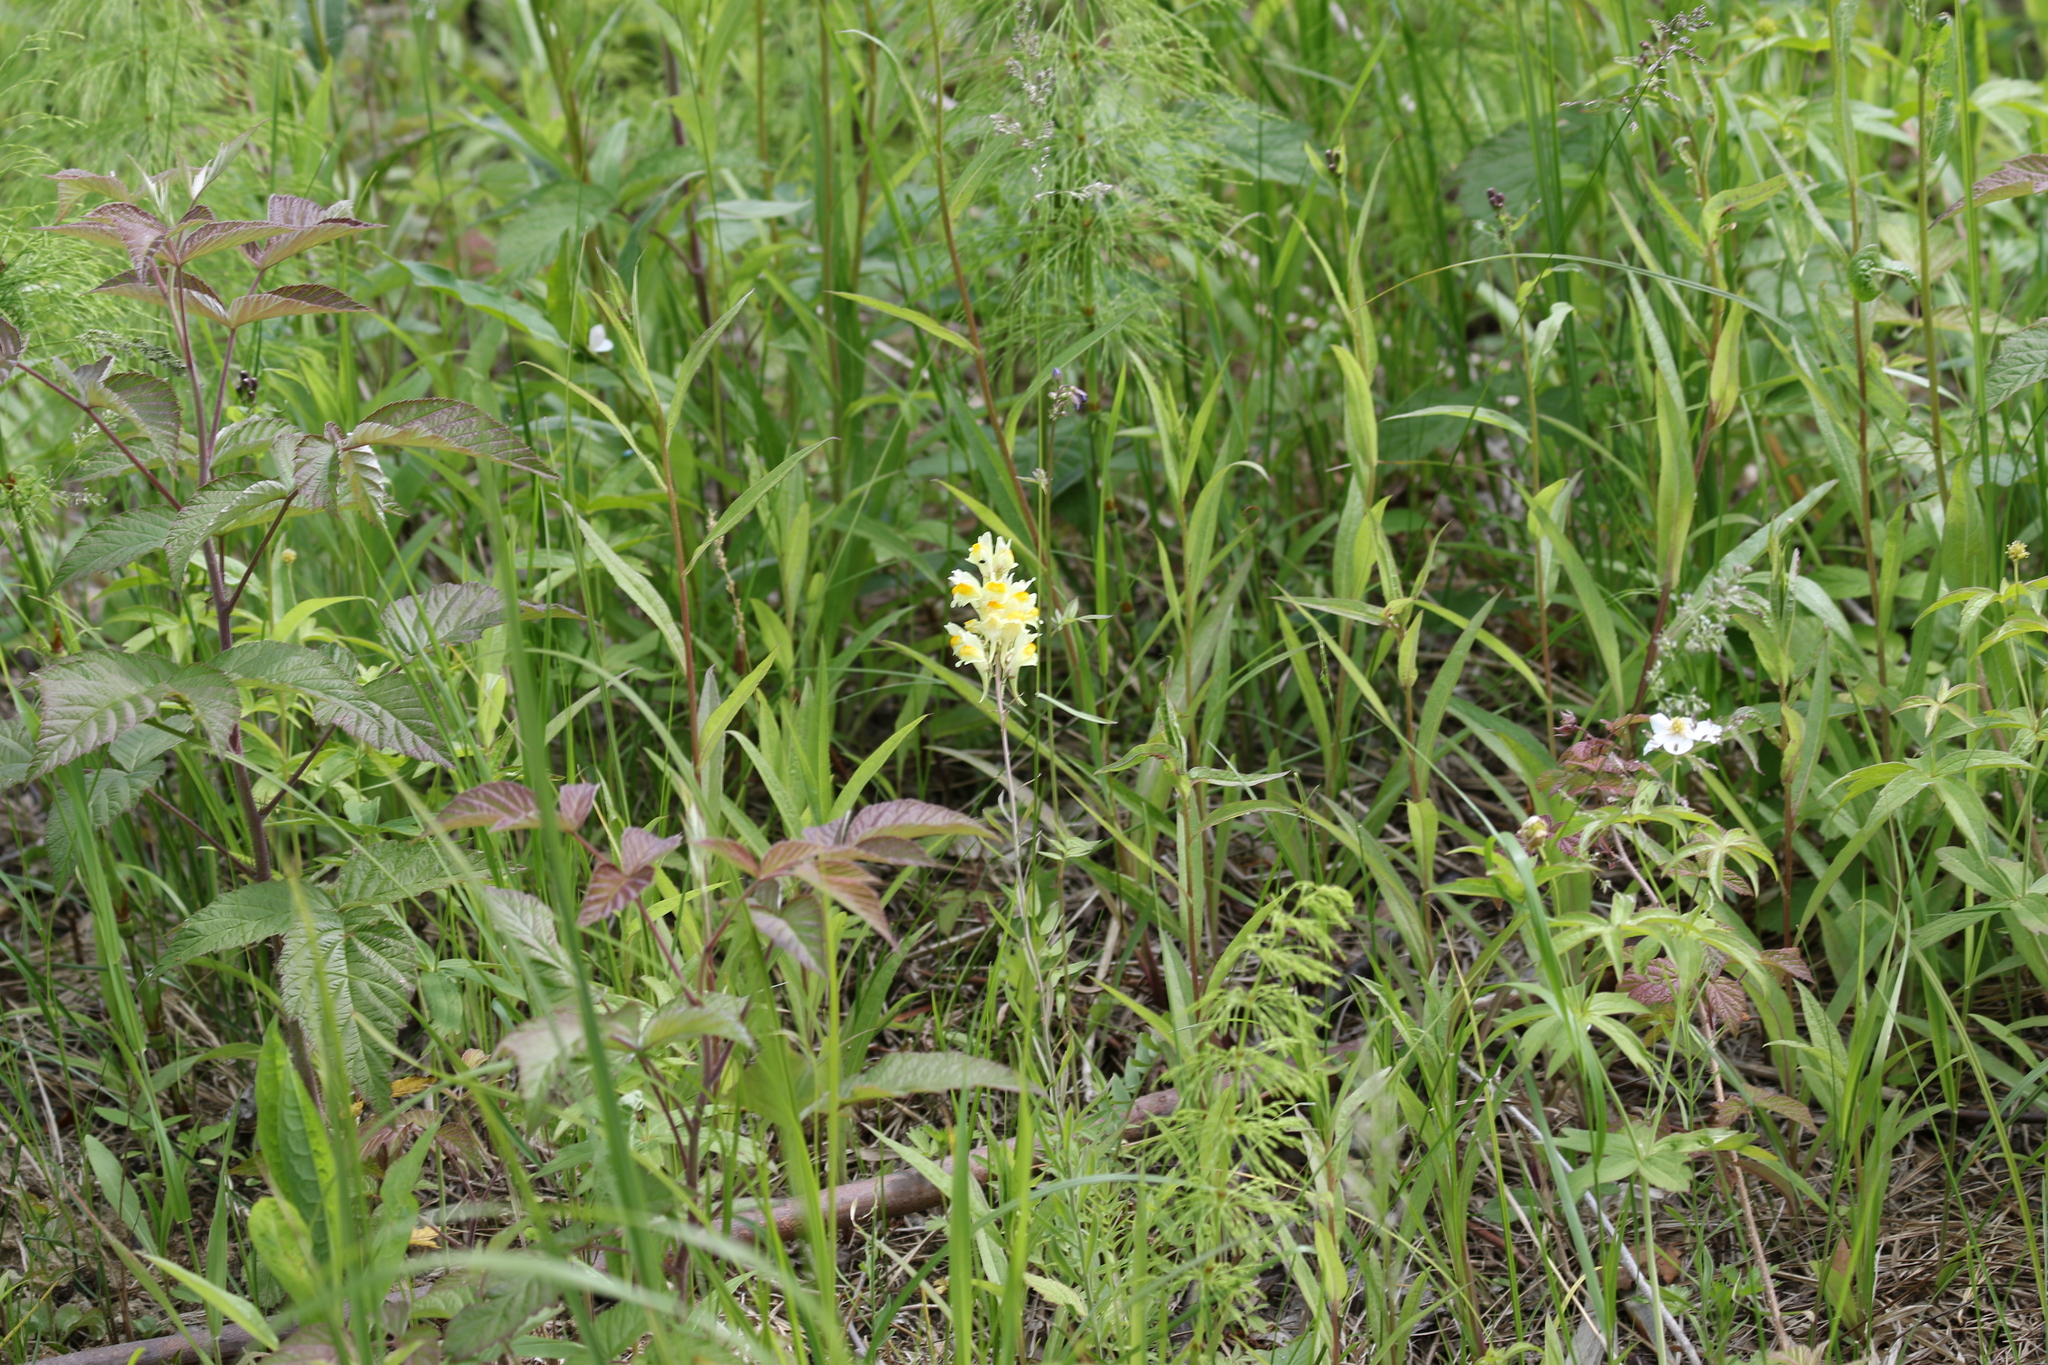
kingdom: Plantae
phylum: Tracheophyta
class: Magnoliopsida
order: Lamiales
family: Plantaginaceae
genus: Linaria
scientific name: Linaria vulgaris
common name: Butter and eggs
